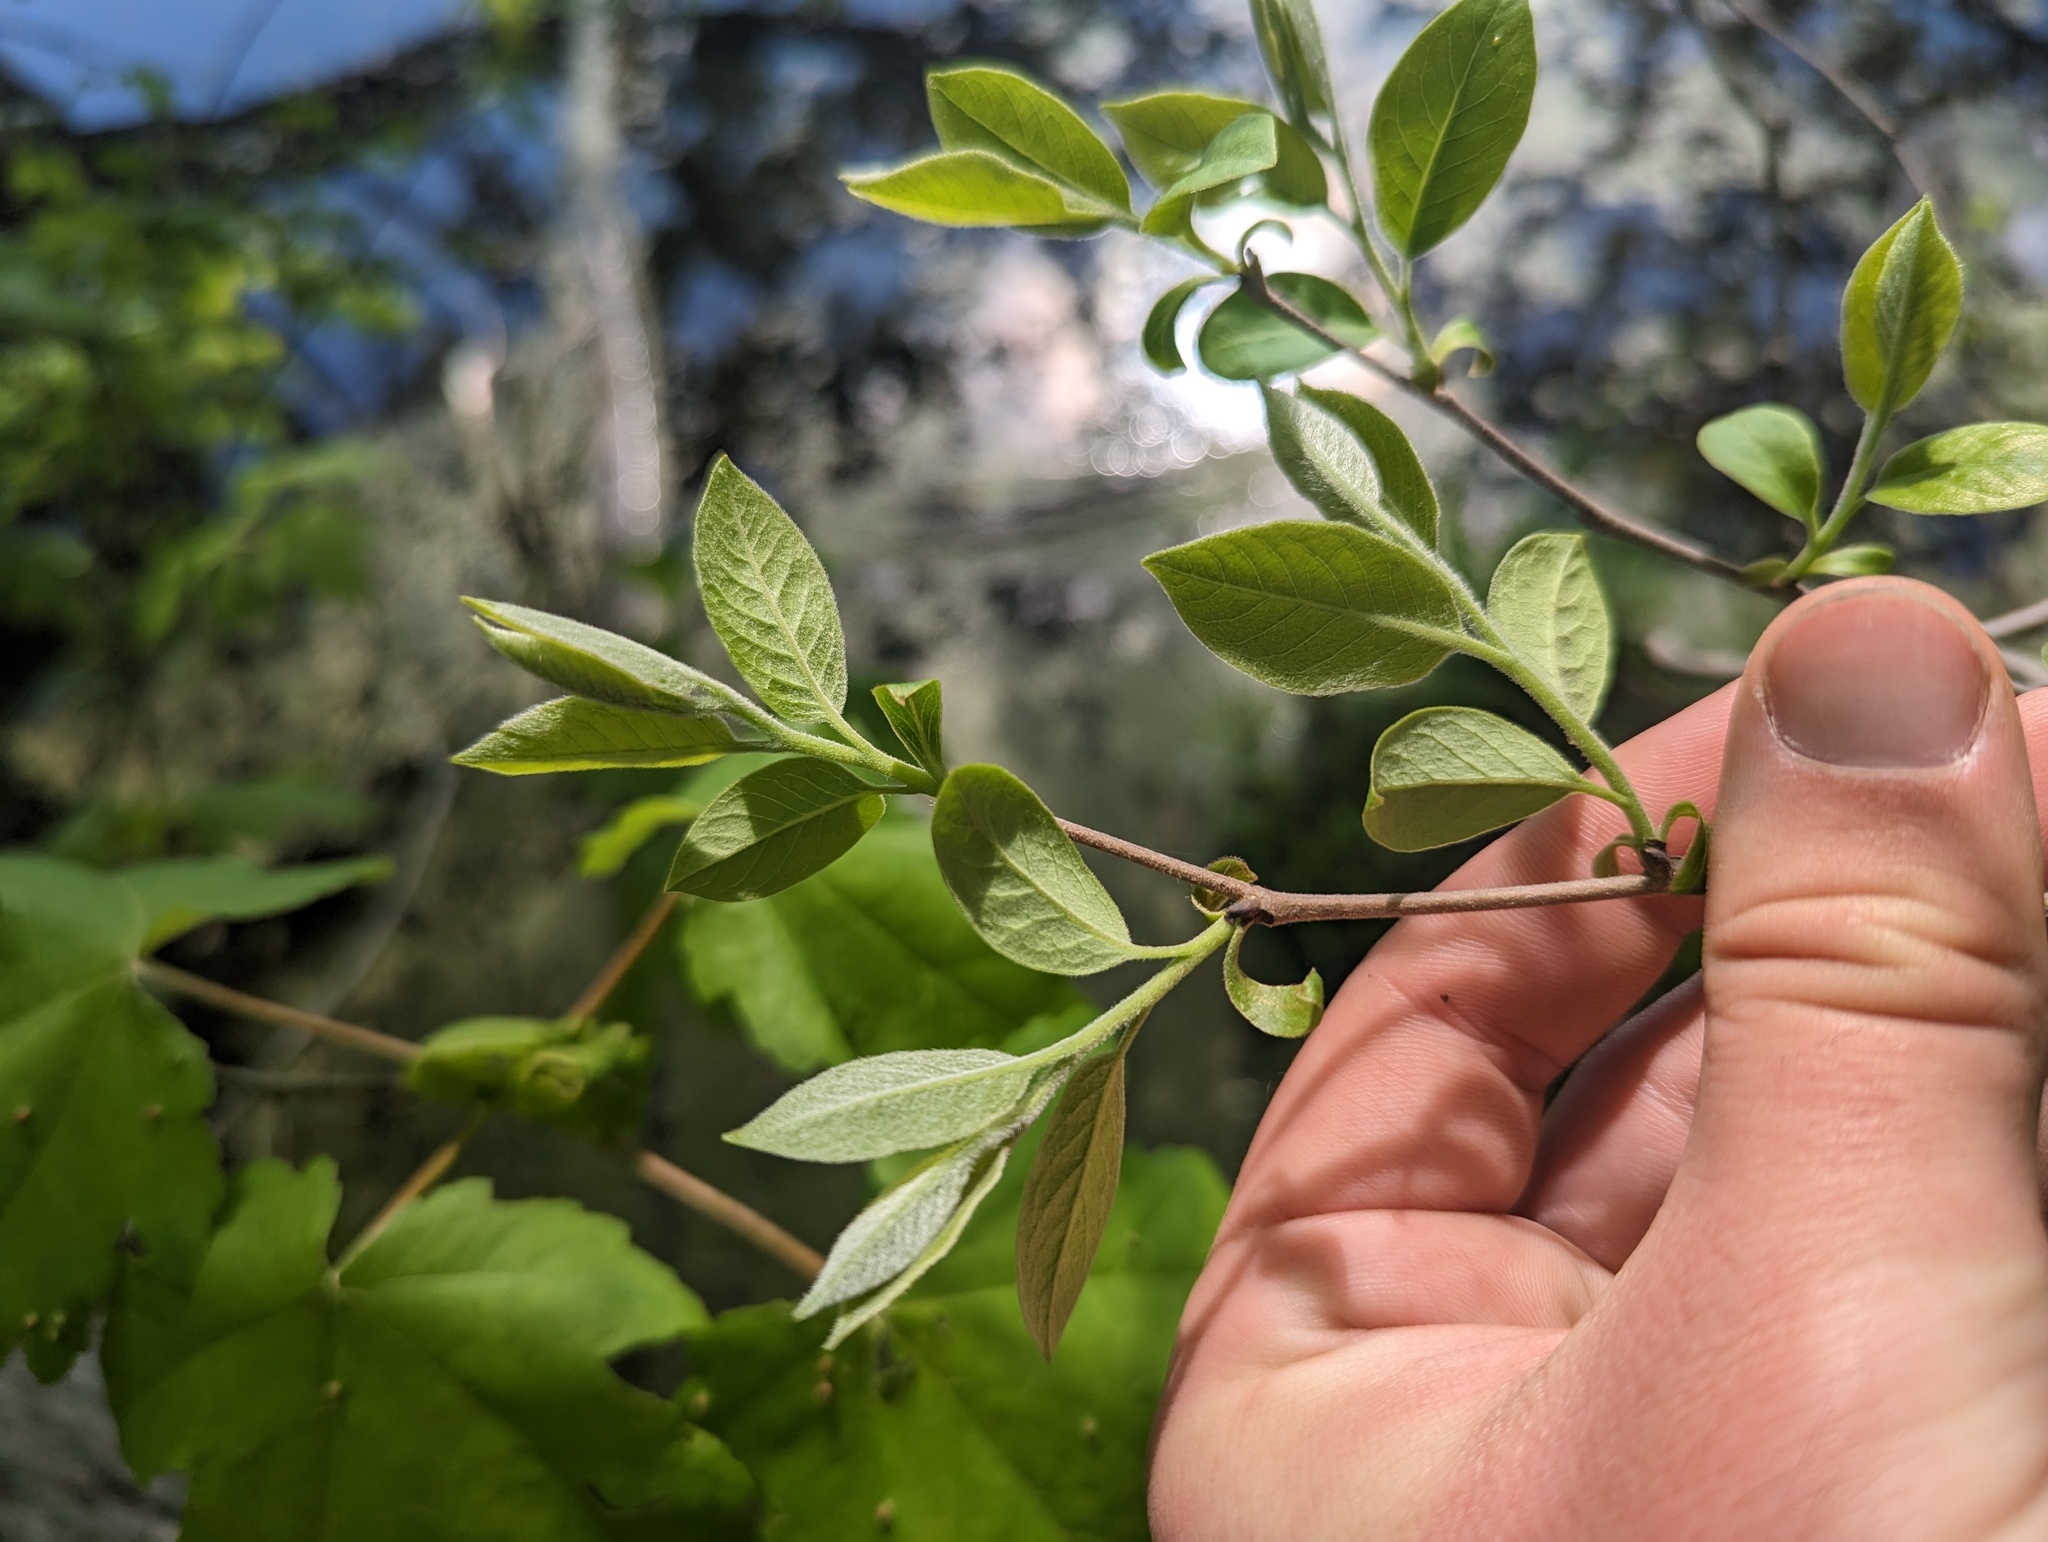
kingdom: Plantae
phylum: Tracheophyta
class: Magnoliopsida
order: Ericales
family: Ebenaceae
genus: Diospyros
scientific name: Diospyros virginiana
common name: Persimmon
